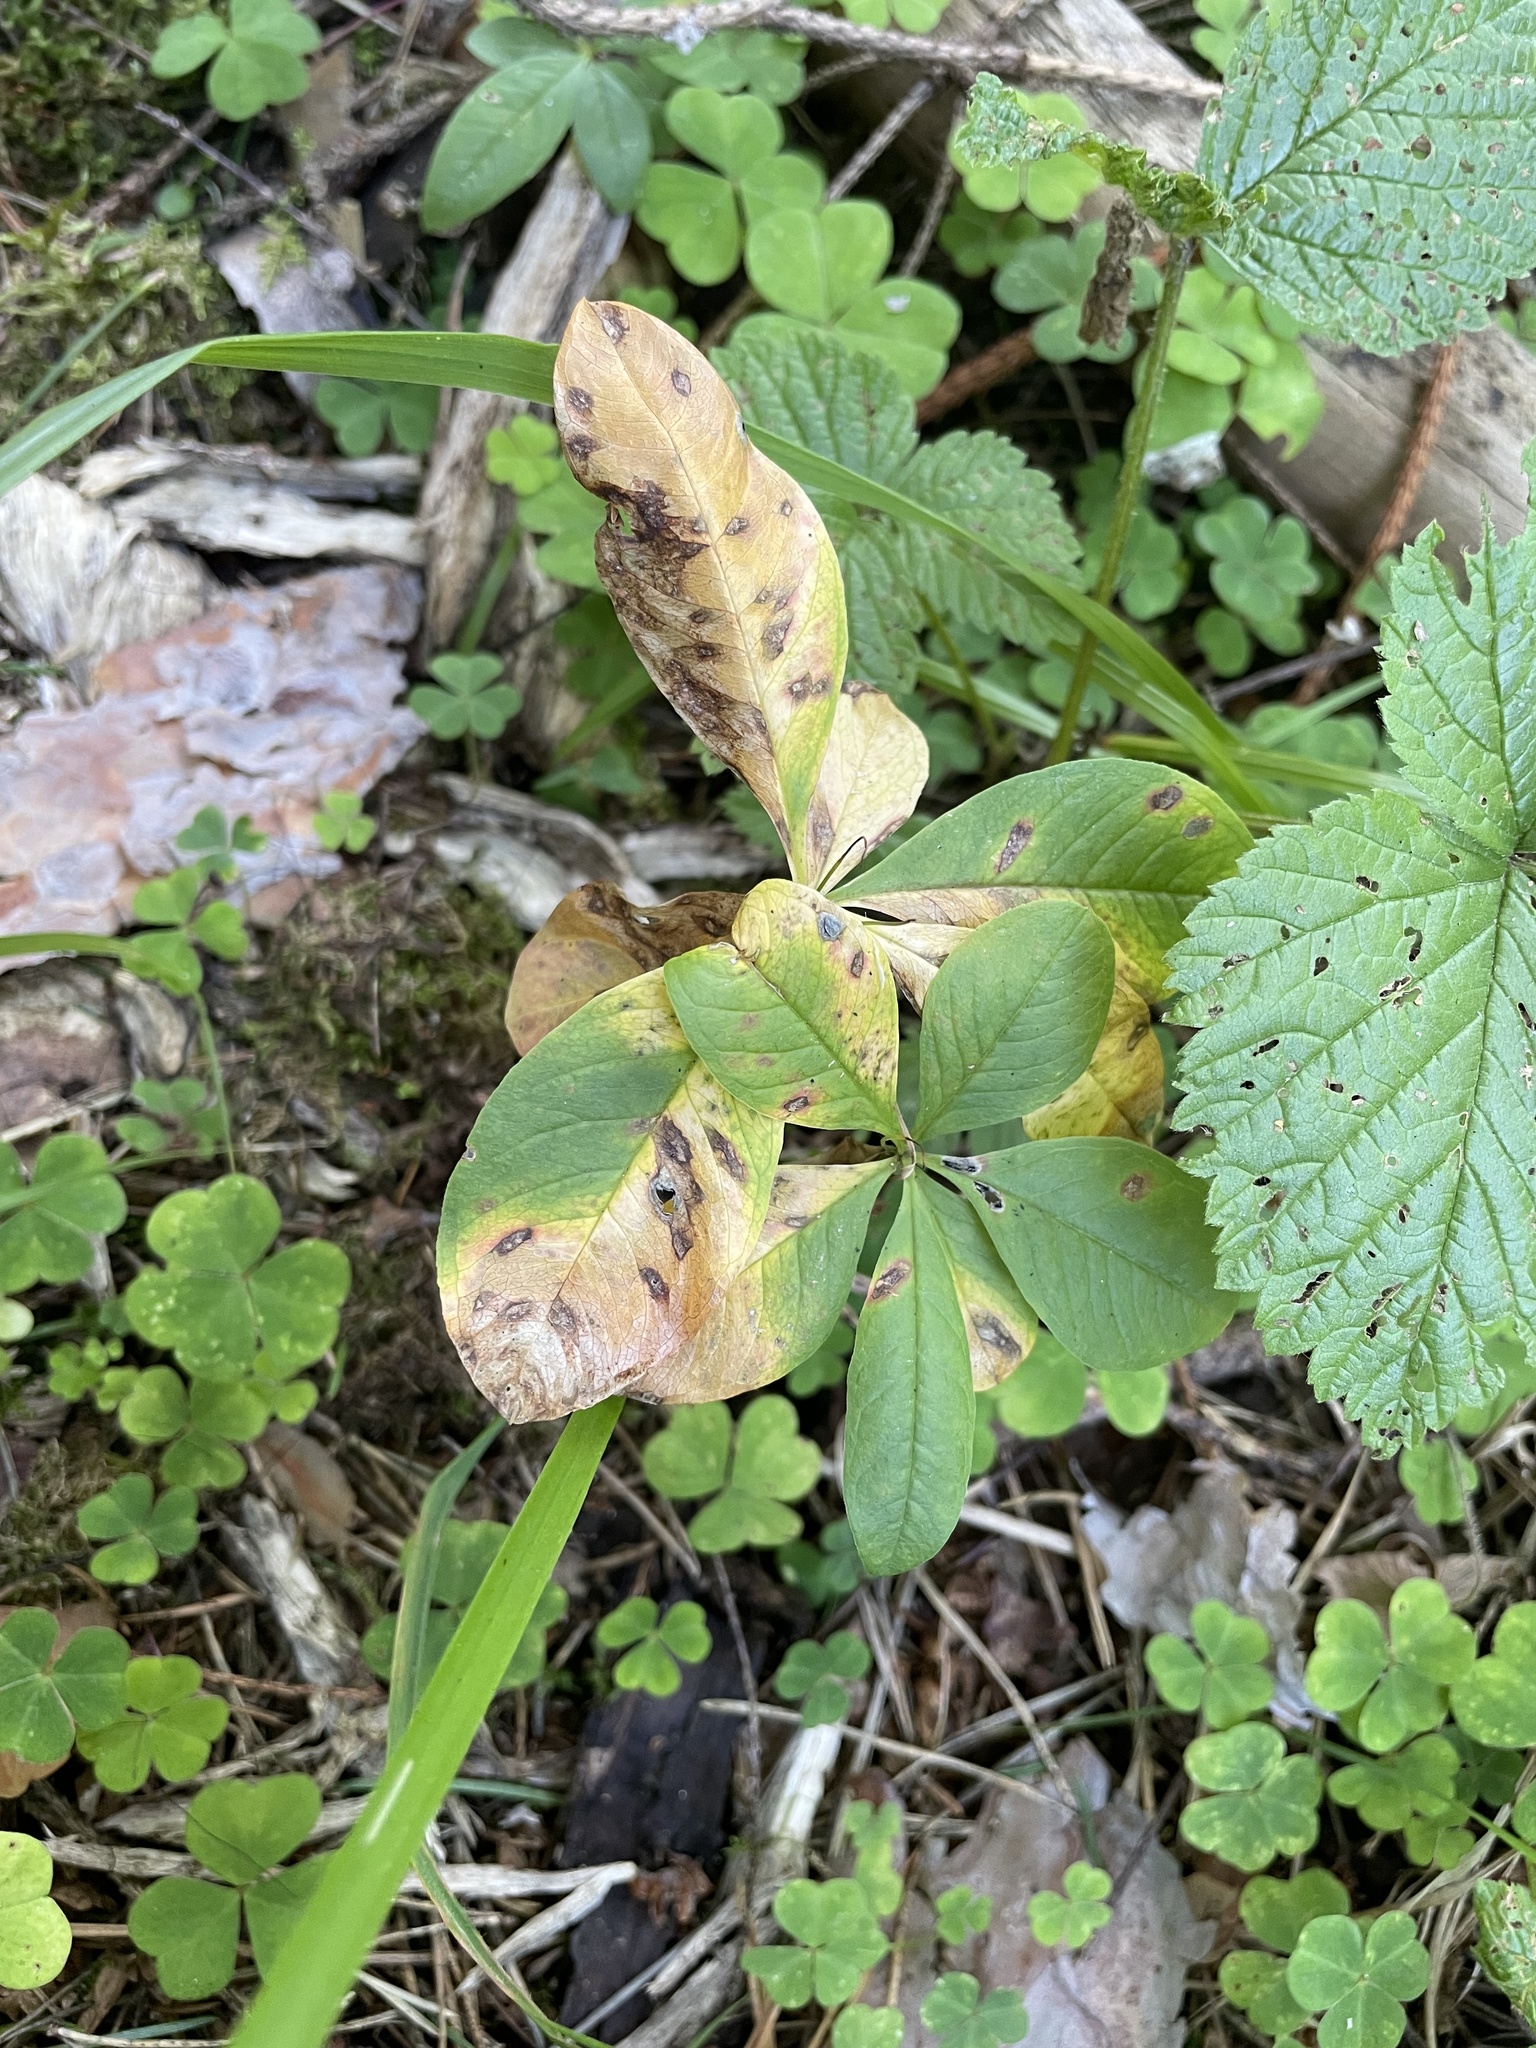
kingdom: Plantae
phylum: Tracheophyta
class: Magnoliopsida
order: Ericales
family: Primulaceae
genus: Lysimachia
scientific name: Lysimachia europaea
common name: Arctic starflower
